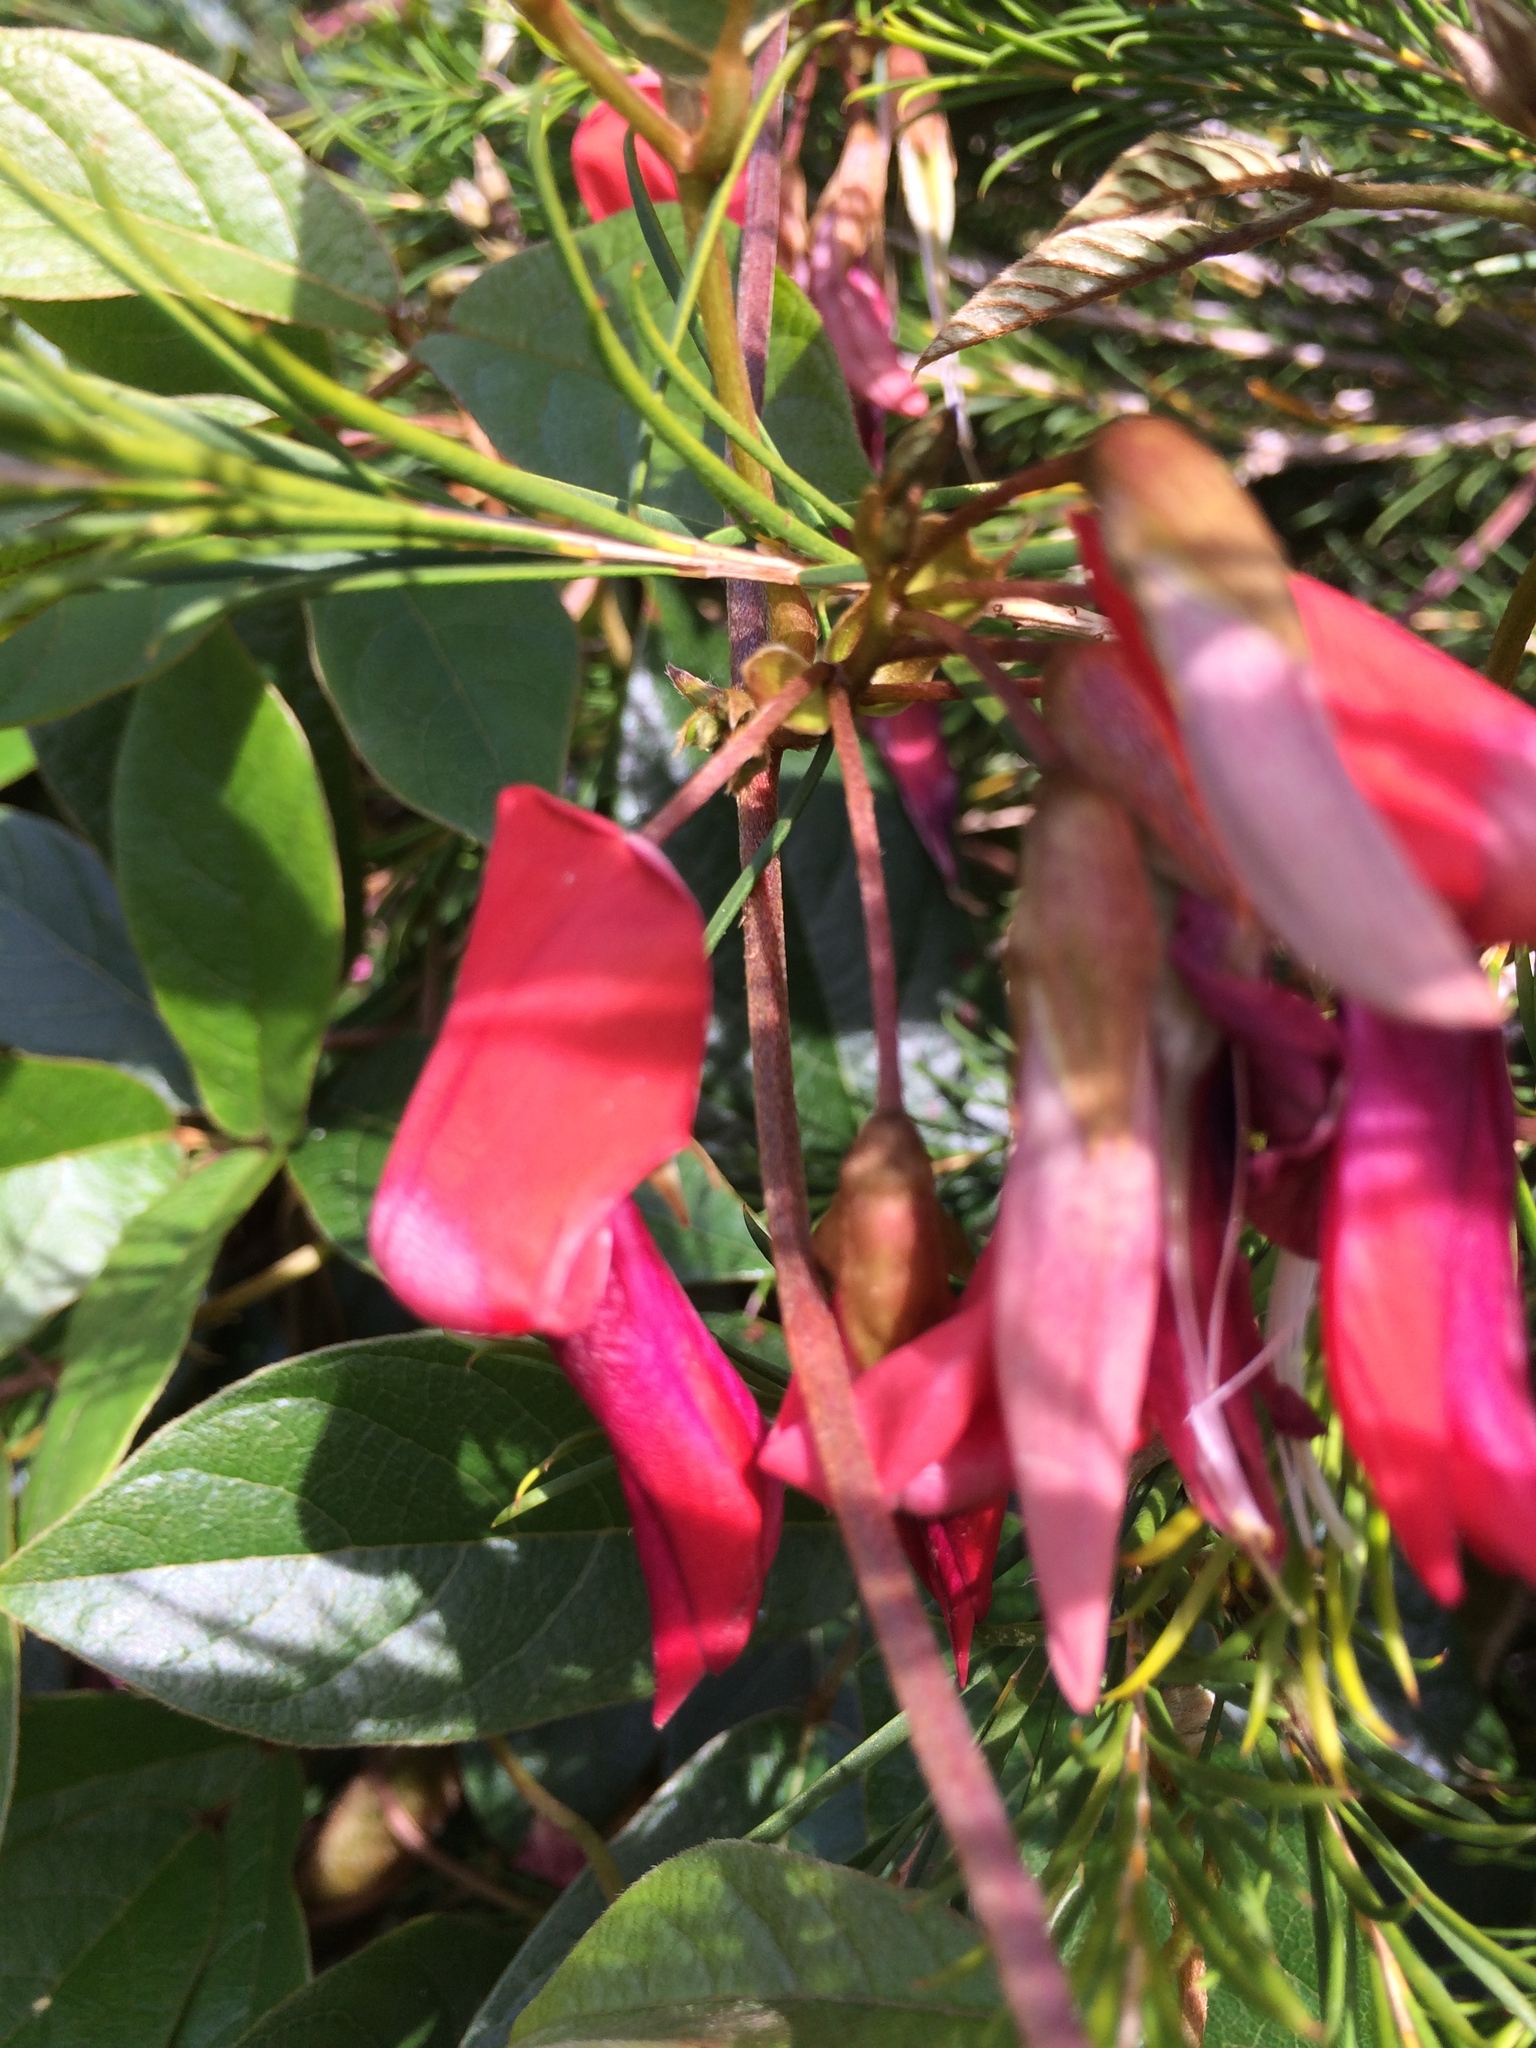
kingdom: Plantae
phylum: Tracheophyta
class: Magnoliopsida
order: Fabales
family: Fabaceae
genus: Kennedia
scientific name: Kennedia rubicunda
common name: Red kennedy-pea
